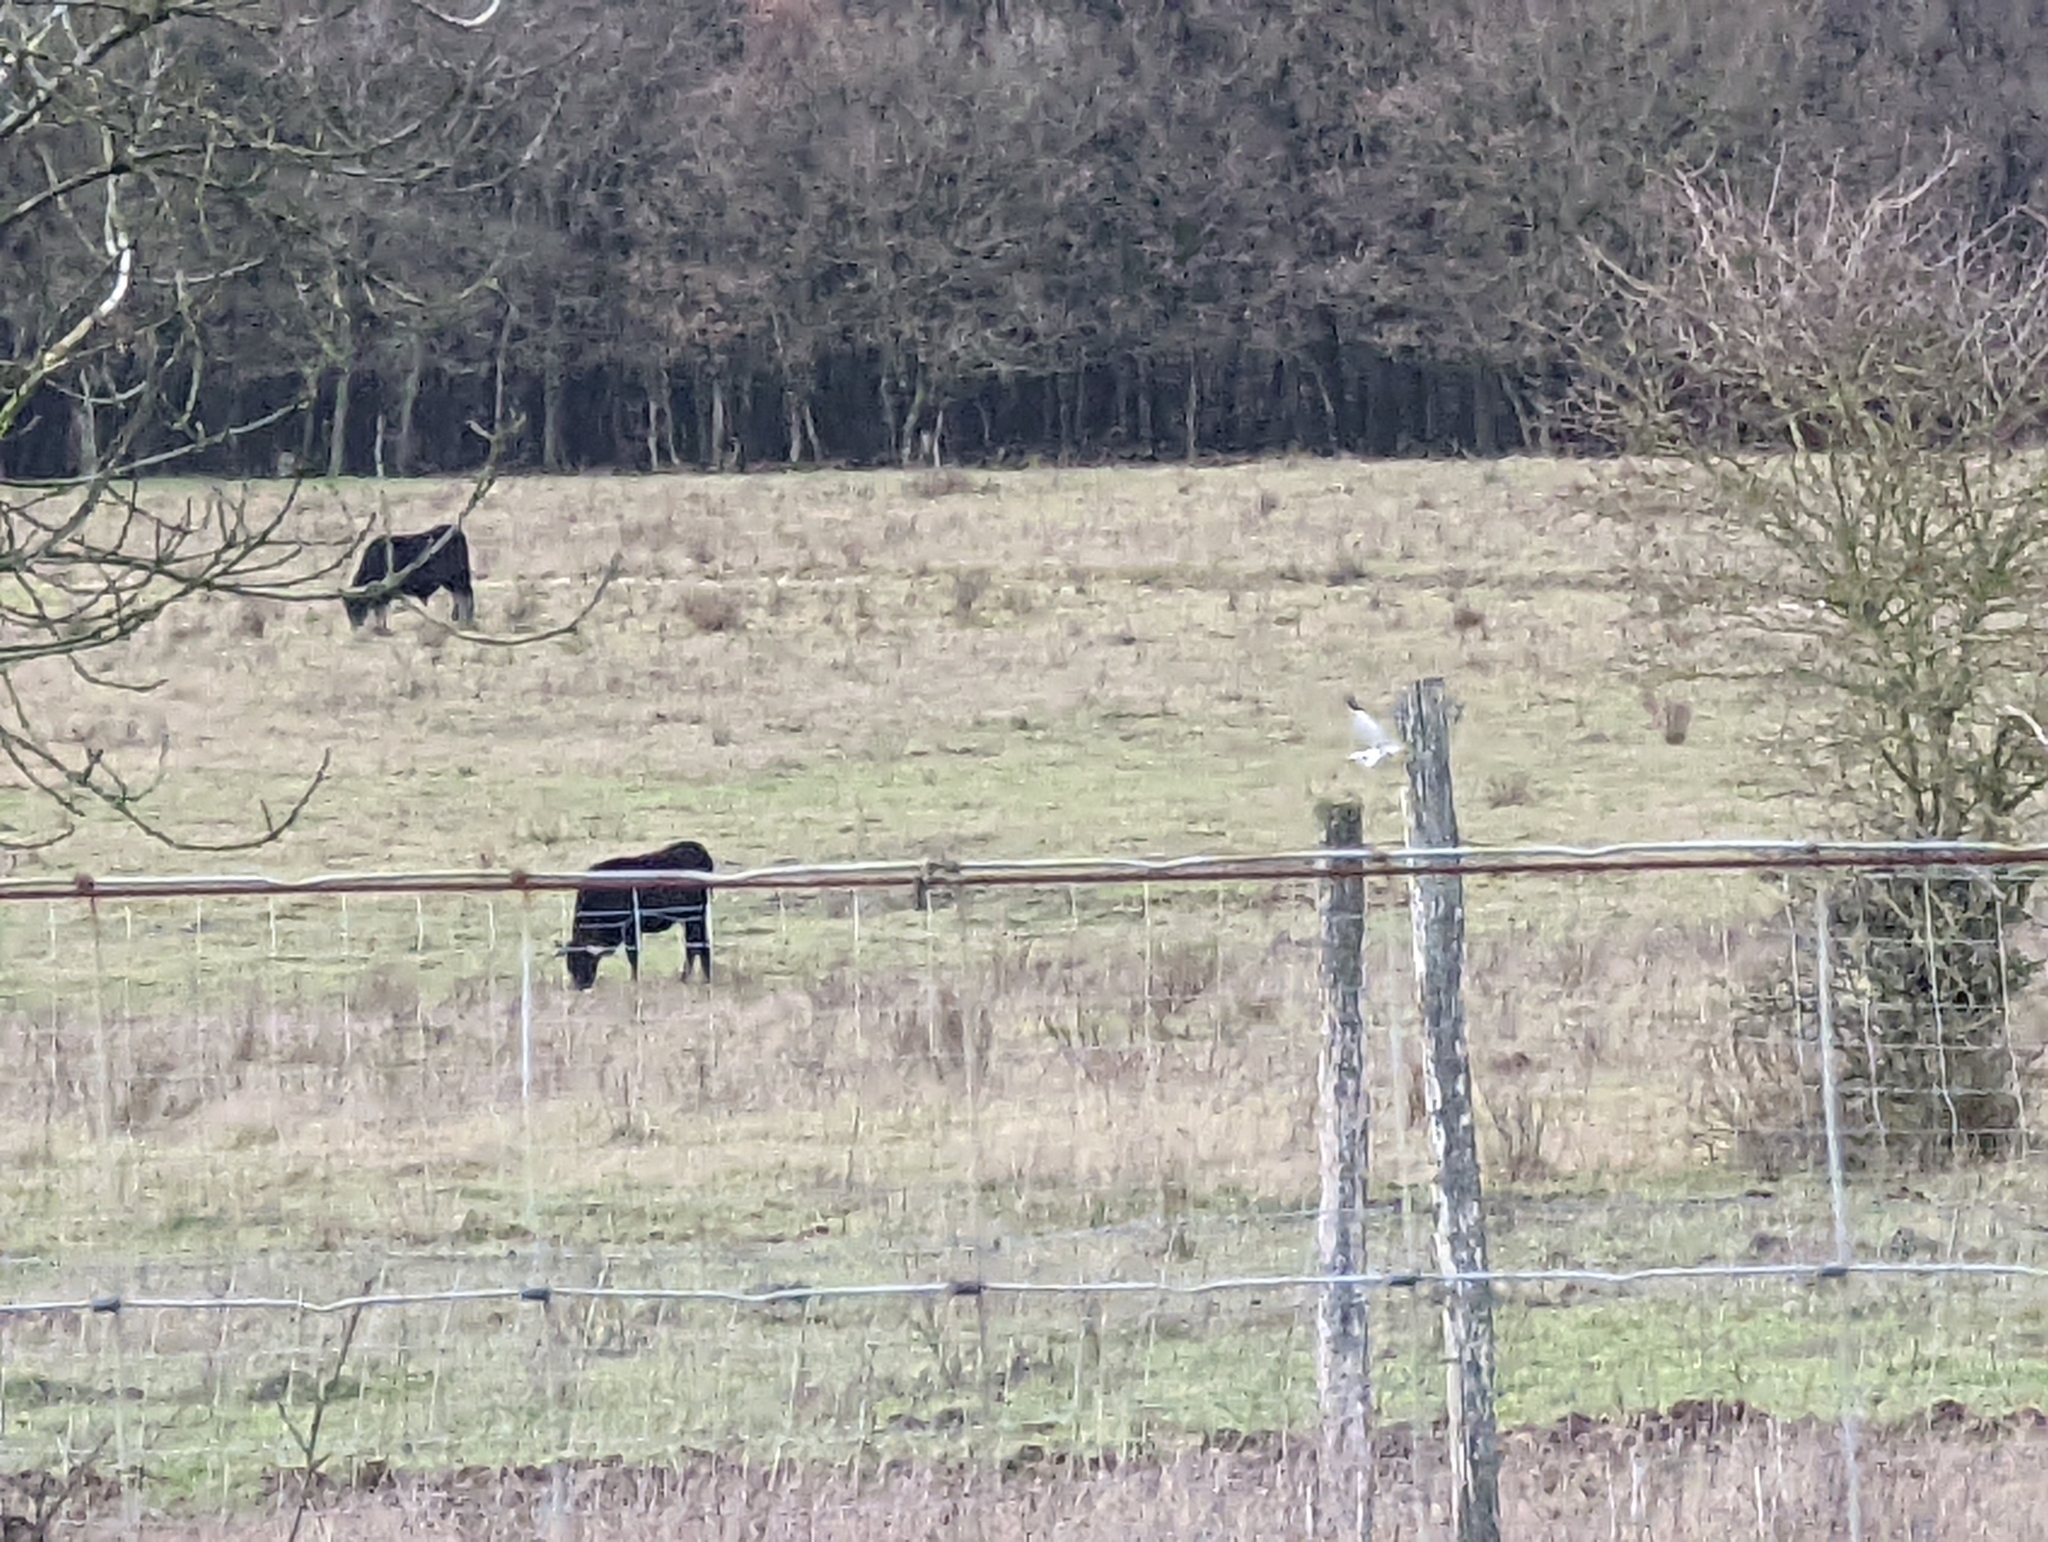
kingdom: Animalia
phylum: Chordata
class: Aves
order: Accipitriformes
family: Accipitridae
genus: Circus
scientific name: Circus cyaneus
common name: Hen harrier
